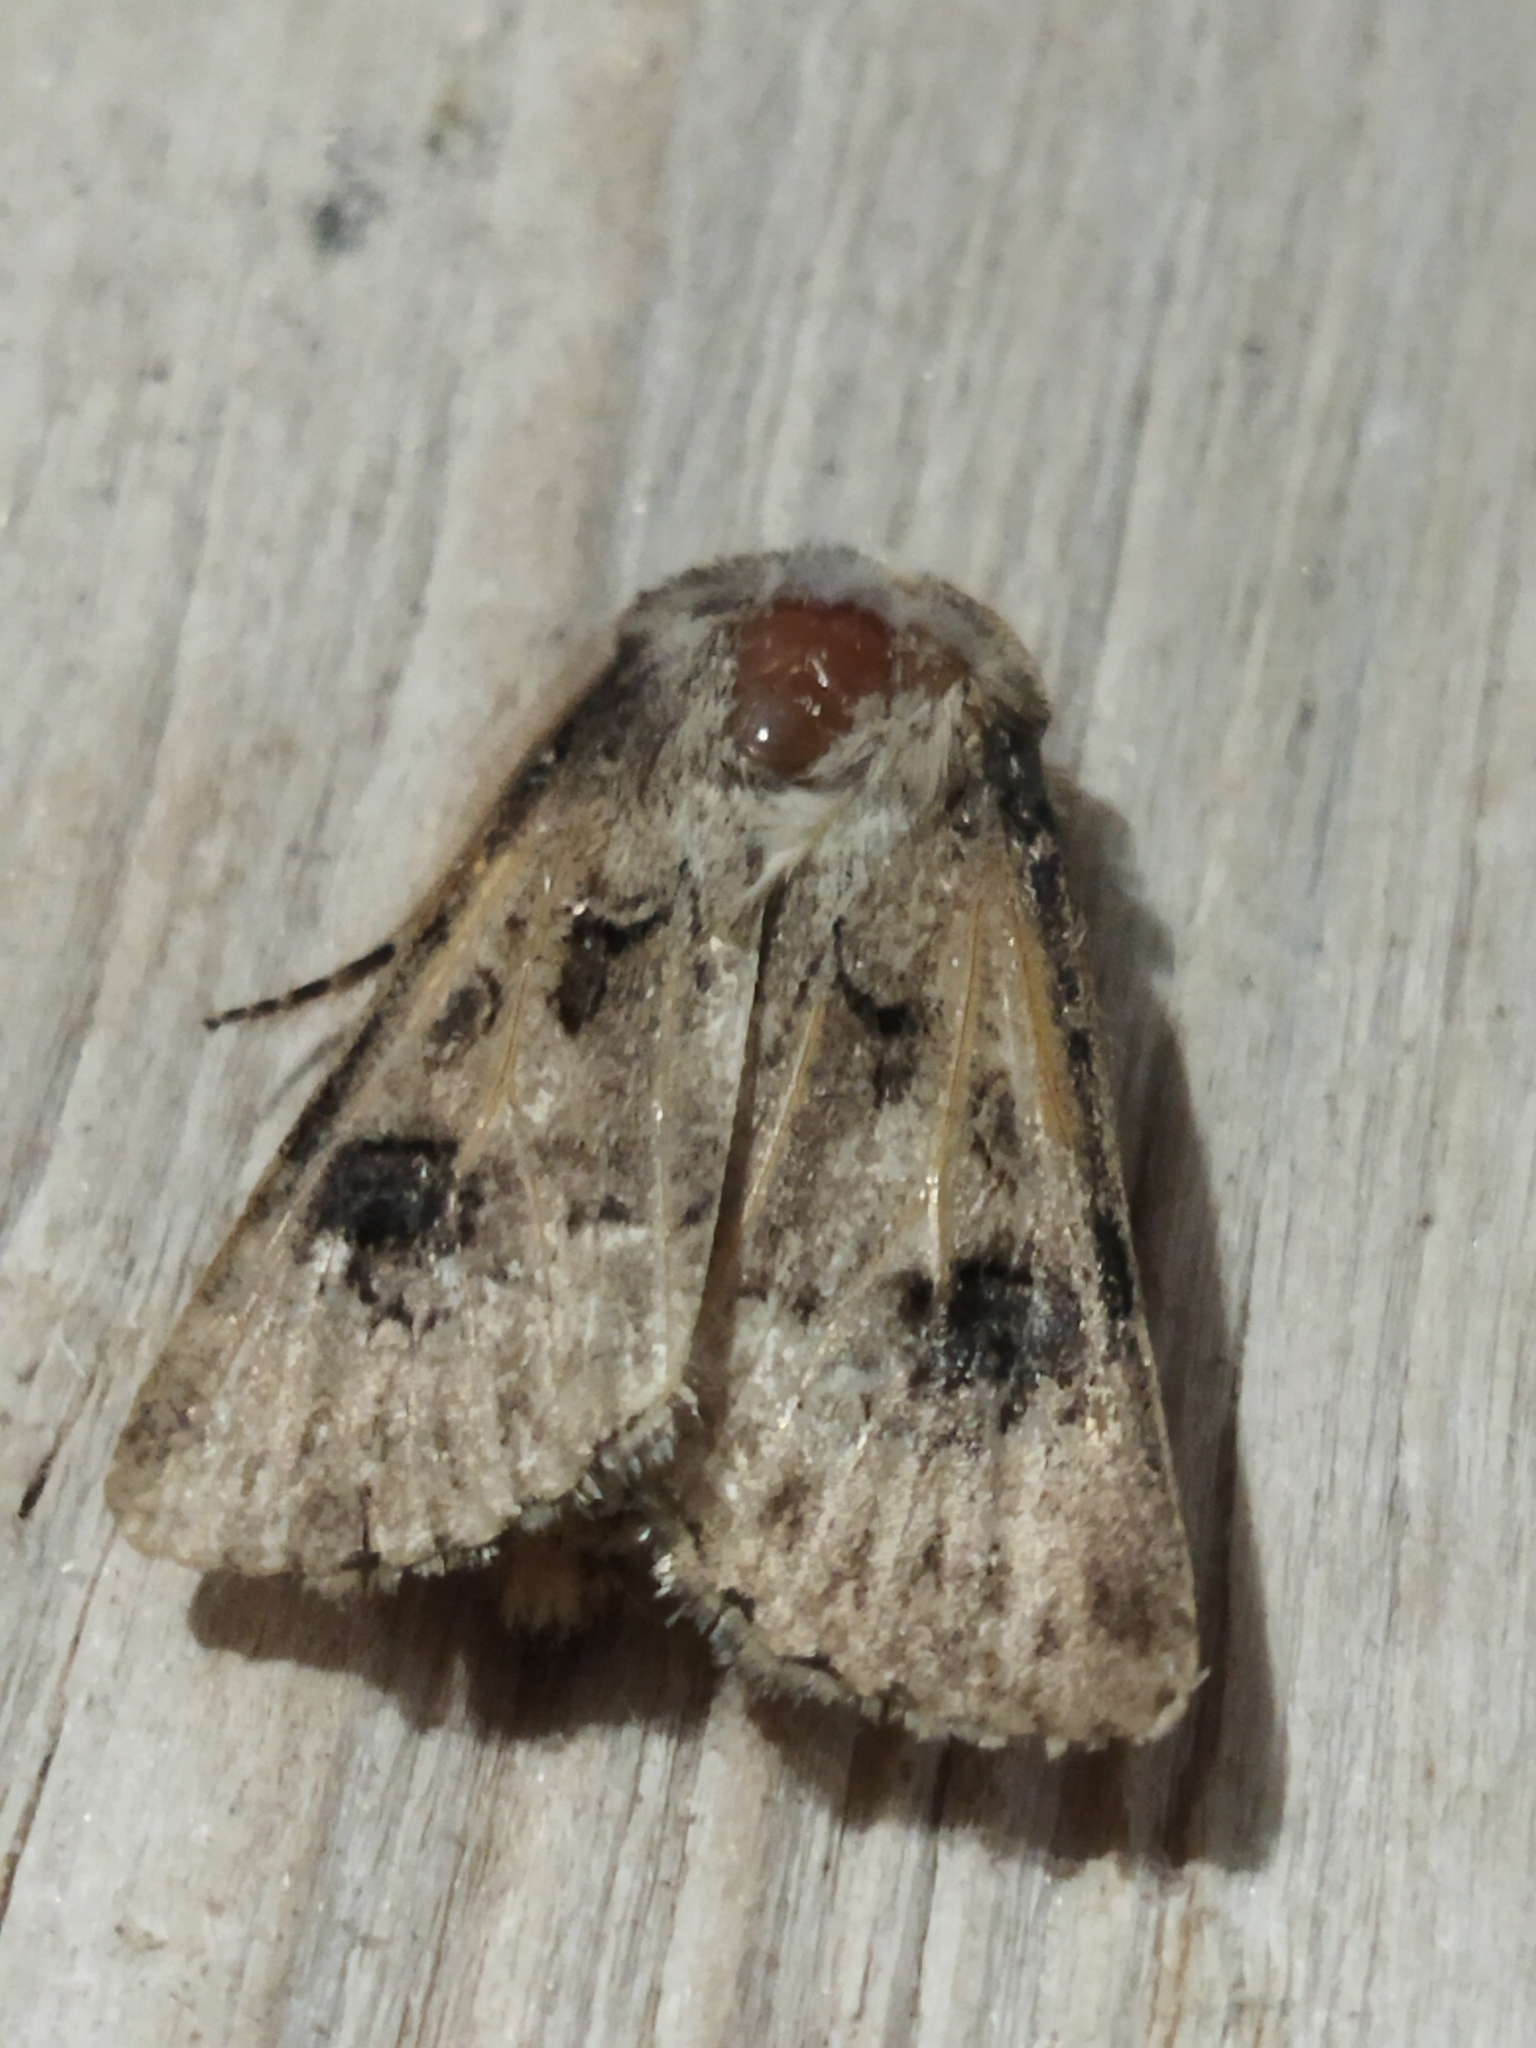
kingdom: Animalia
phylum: Arthropoda
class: Insecta
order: Lepidoptera
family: Noctuidae
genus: Agrotis
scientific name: Agrotis bigramma
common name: Great dart
